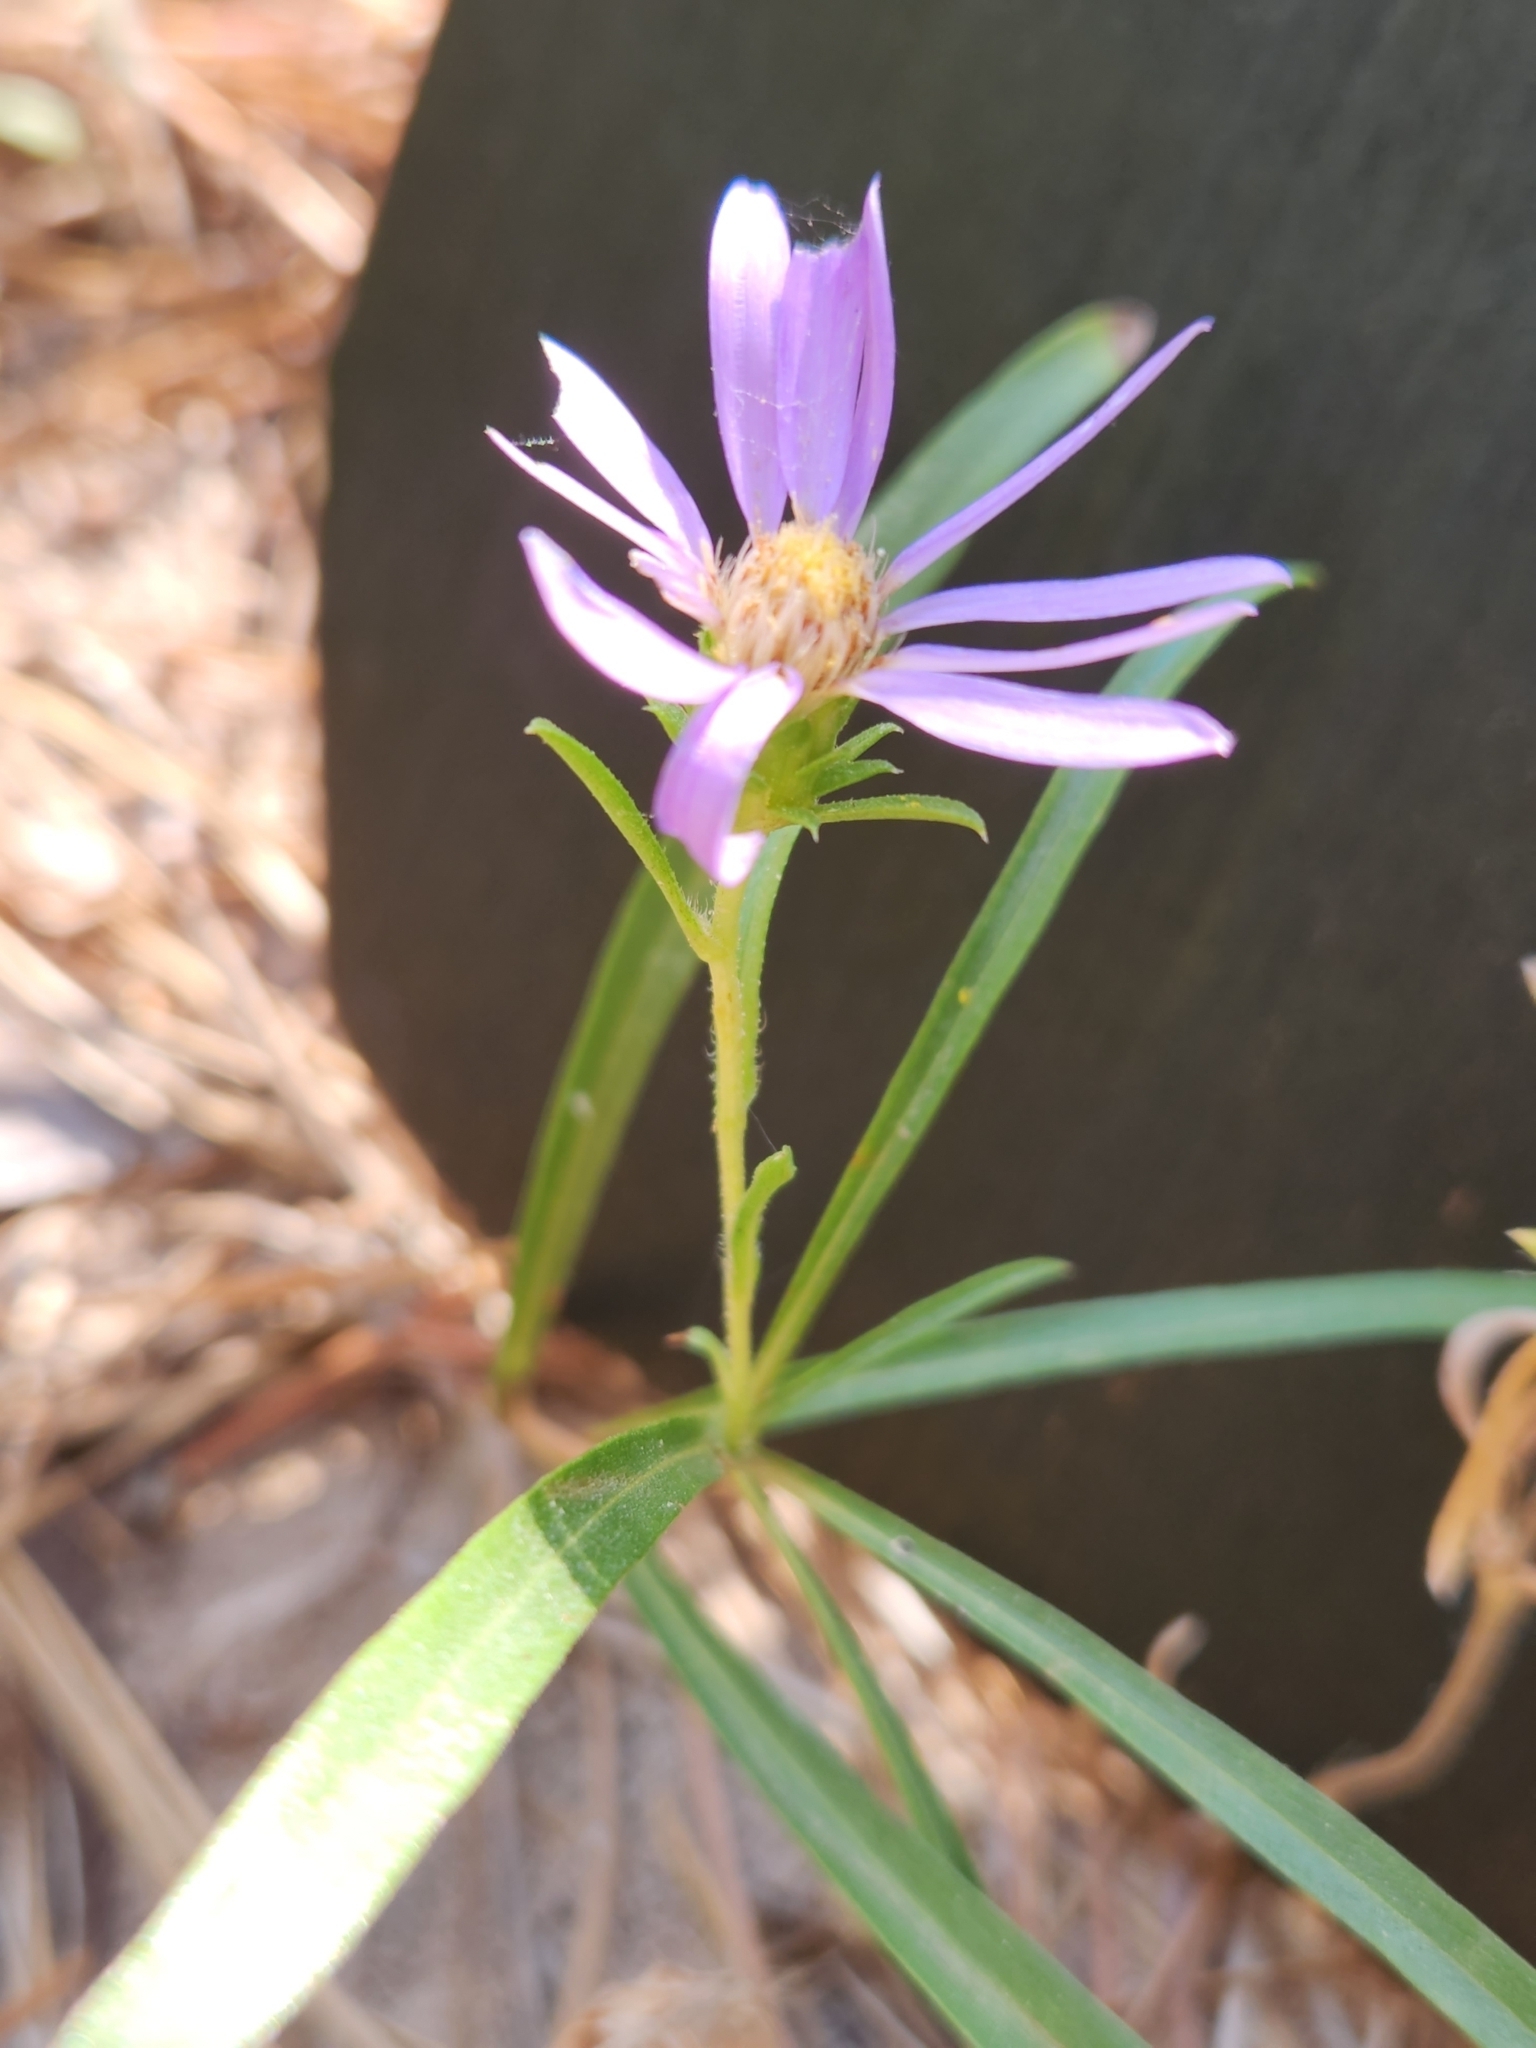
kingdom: Plantae
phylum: Tracheophyta
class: Magnoliopsida
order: Asterales
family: Asteraceae
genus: Eurybia
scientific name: Eurybia hemispherica
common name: Showy aster
